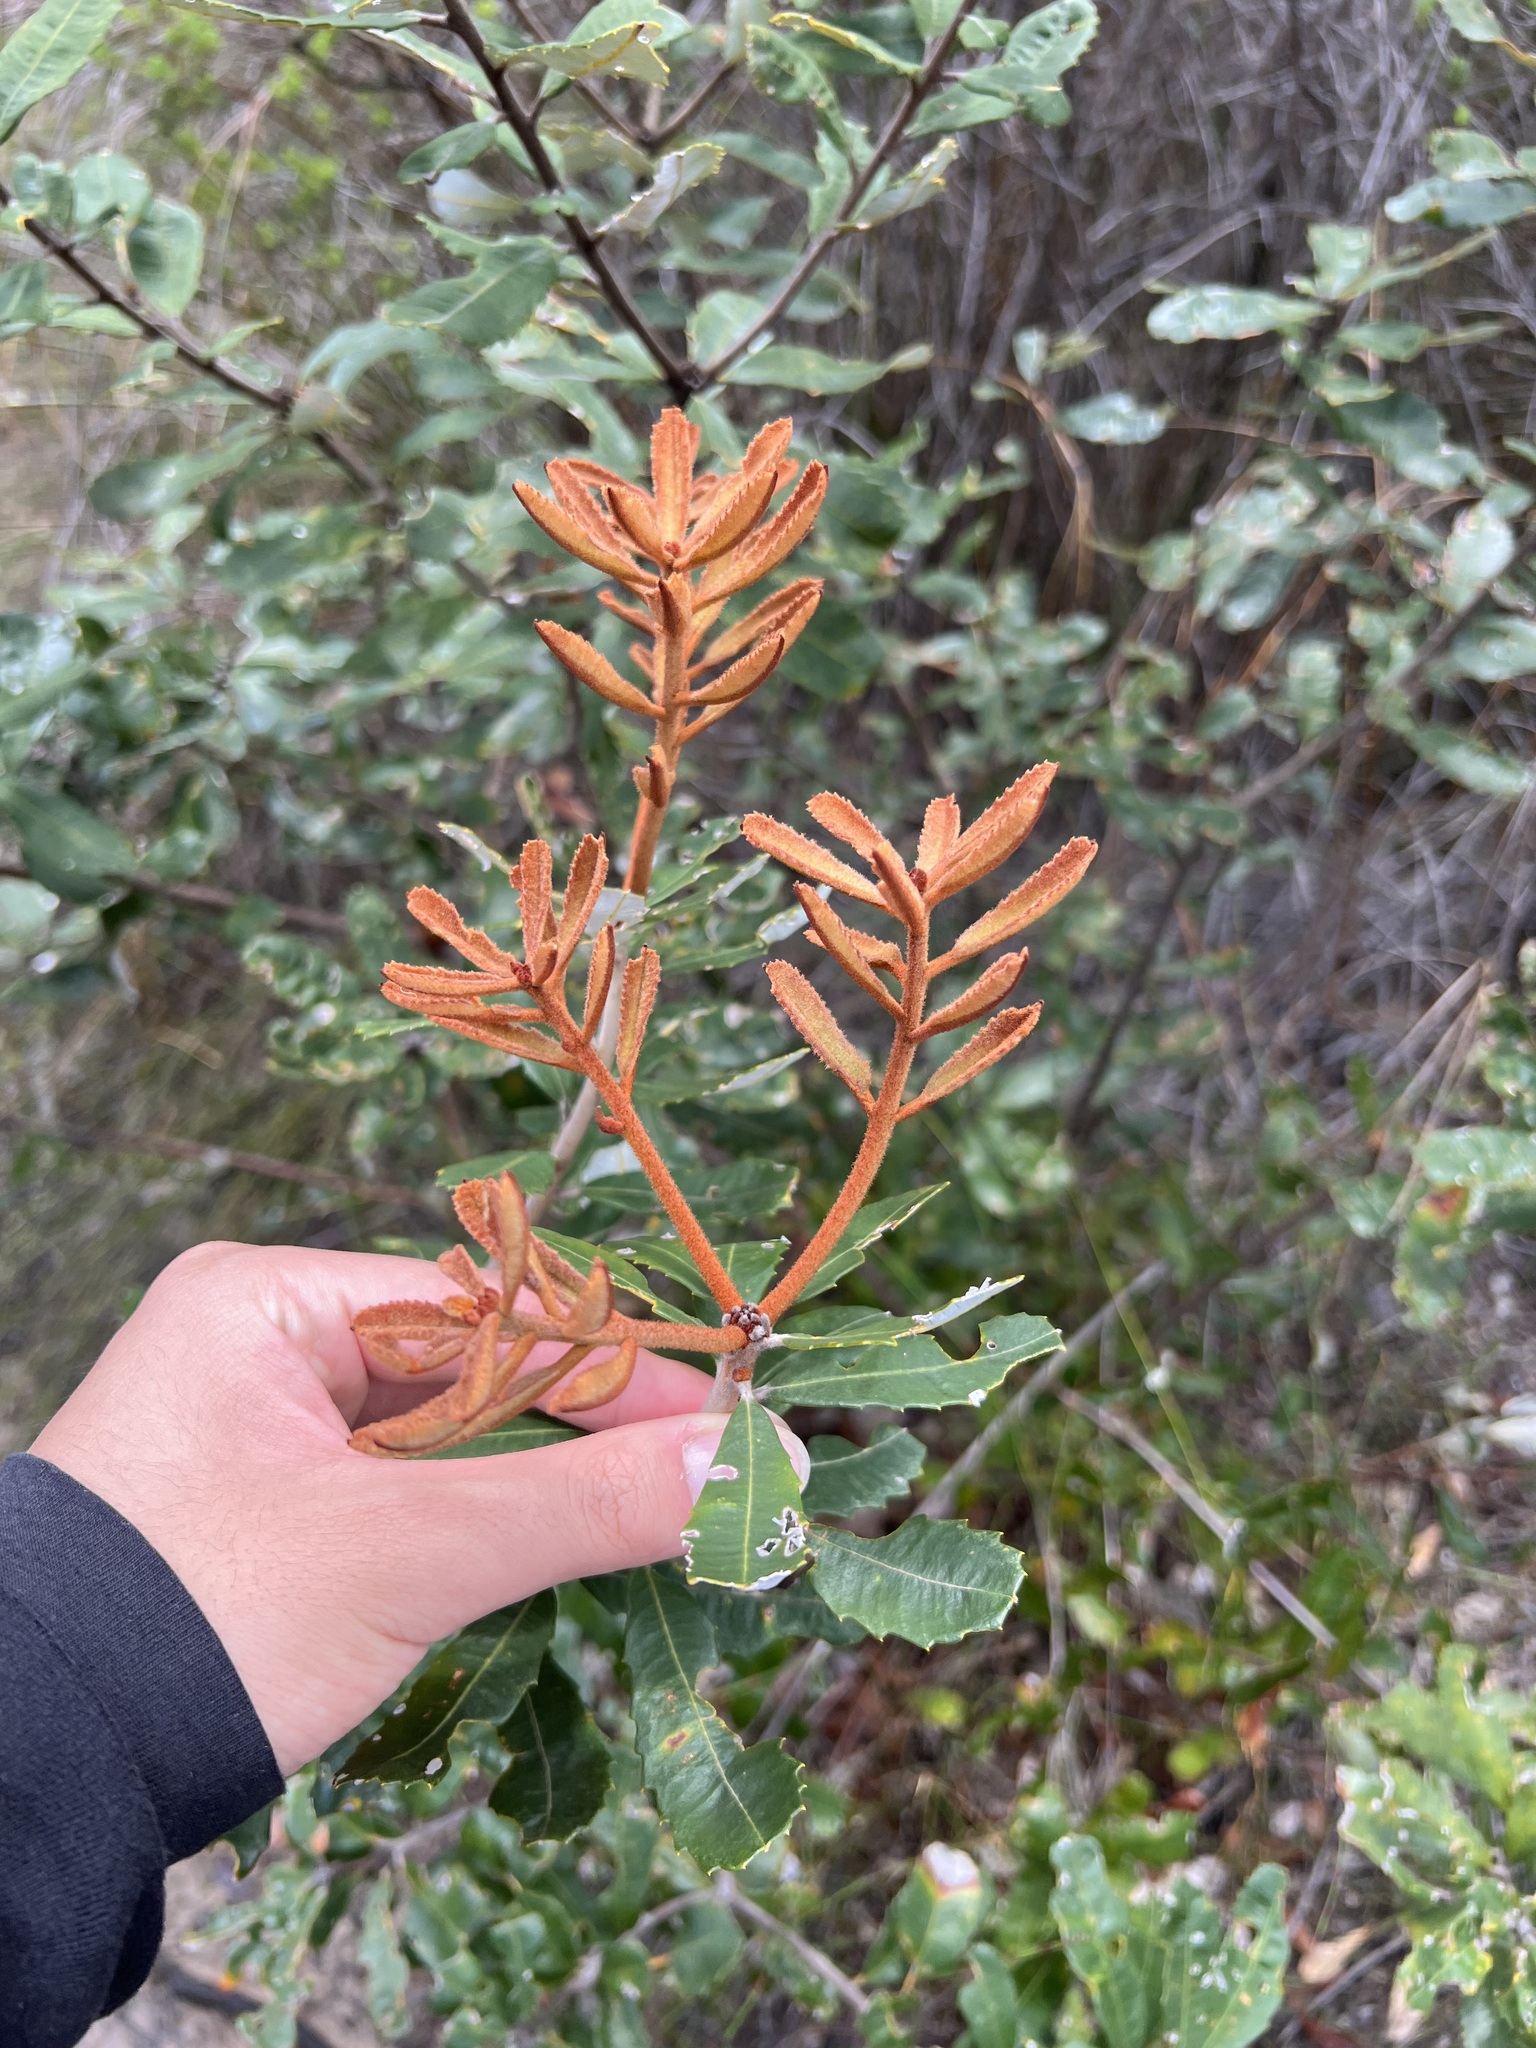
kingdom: Plantae
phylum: Tracheophyta
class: Magnoliopsida
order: Proteales
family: Proteaceae
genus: Banksia
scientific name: Banksia oblongifolia
